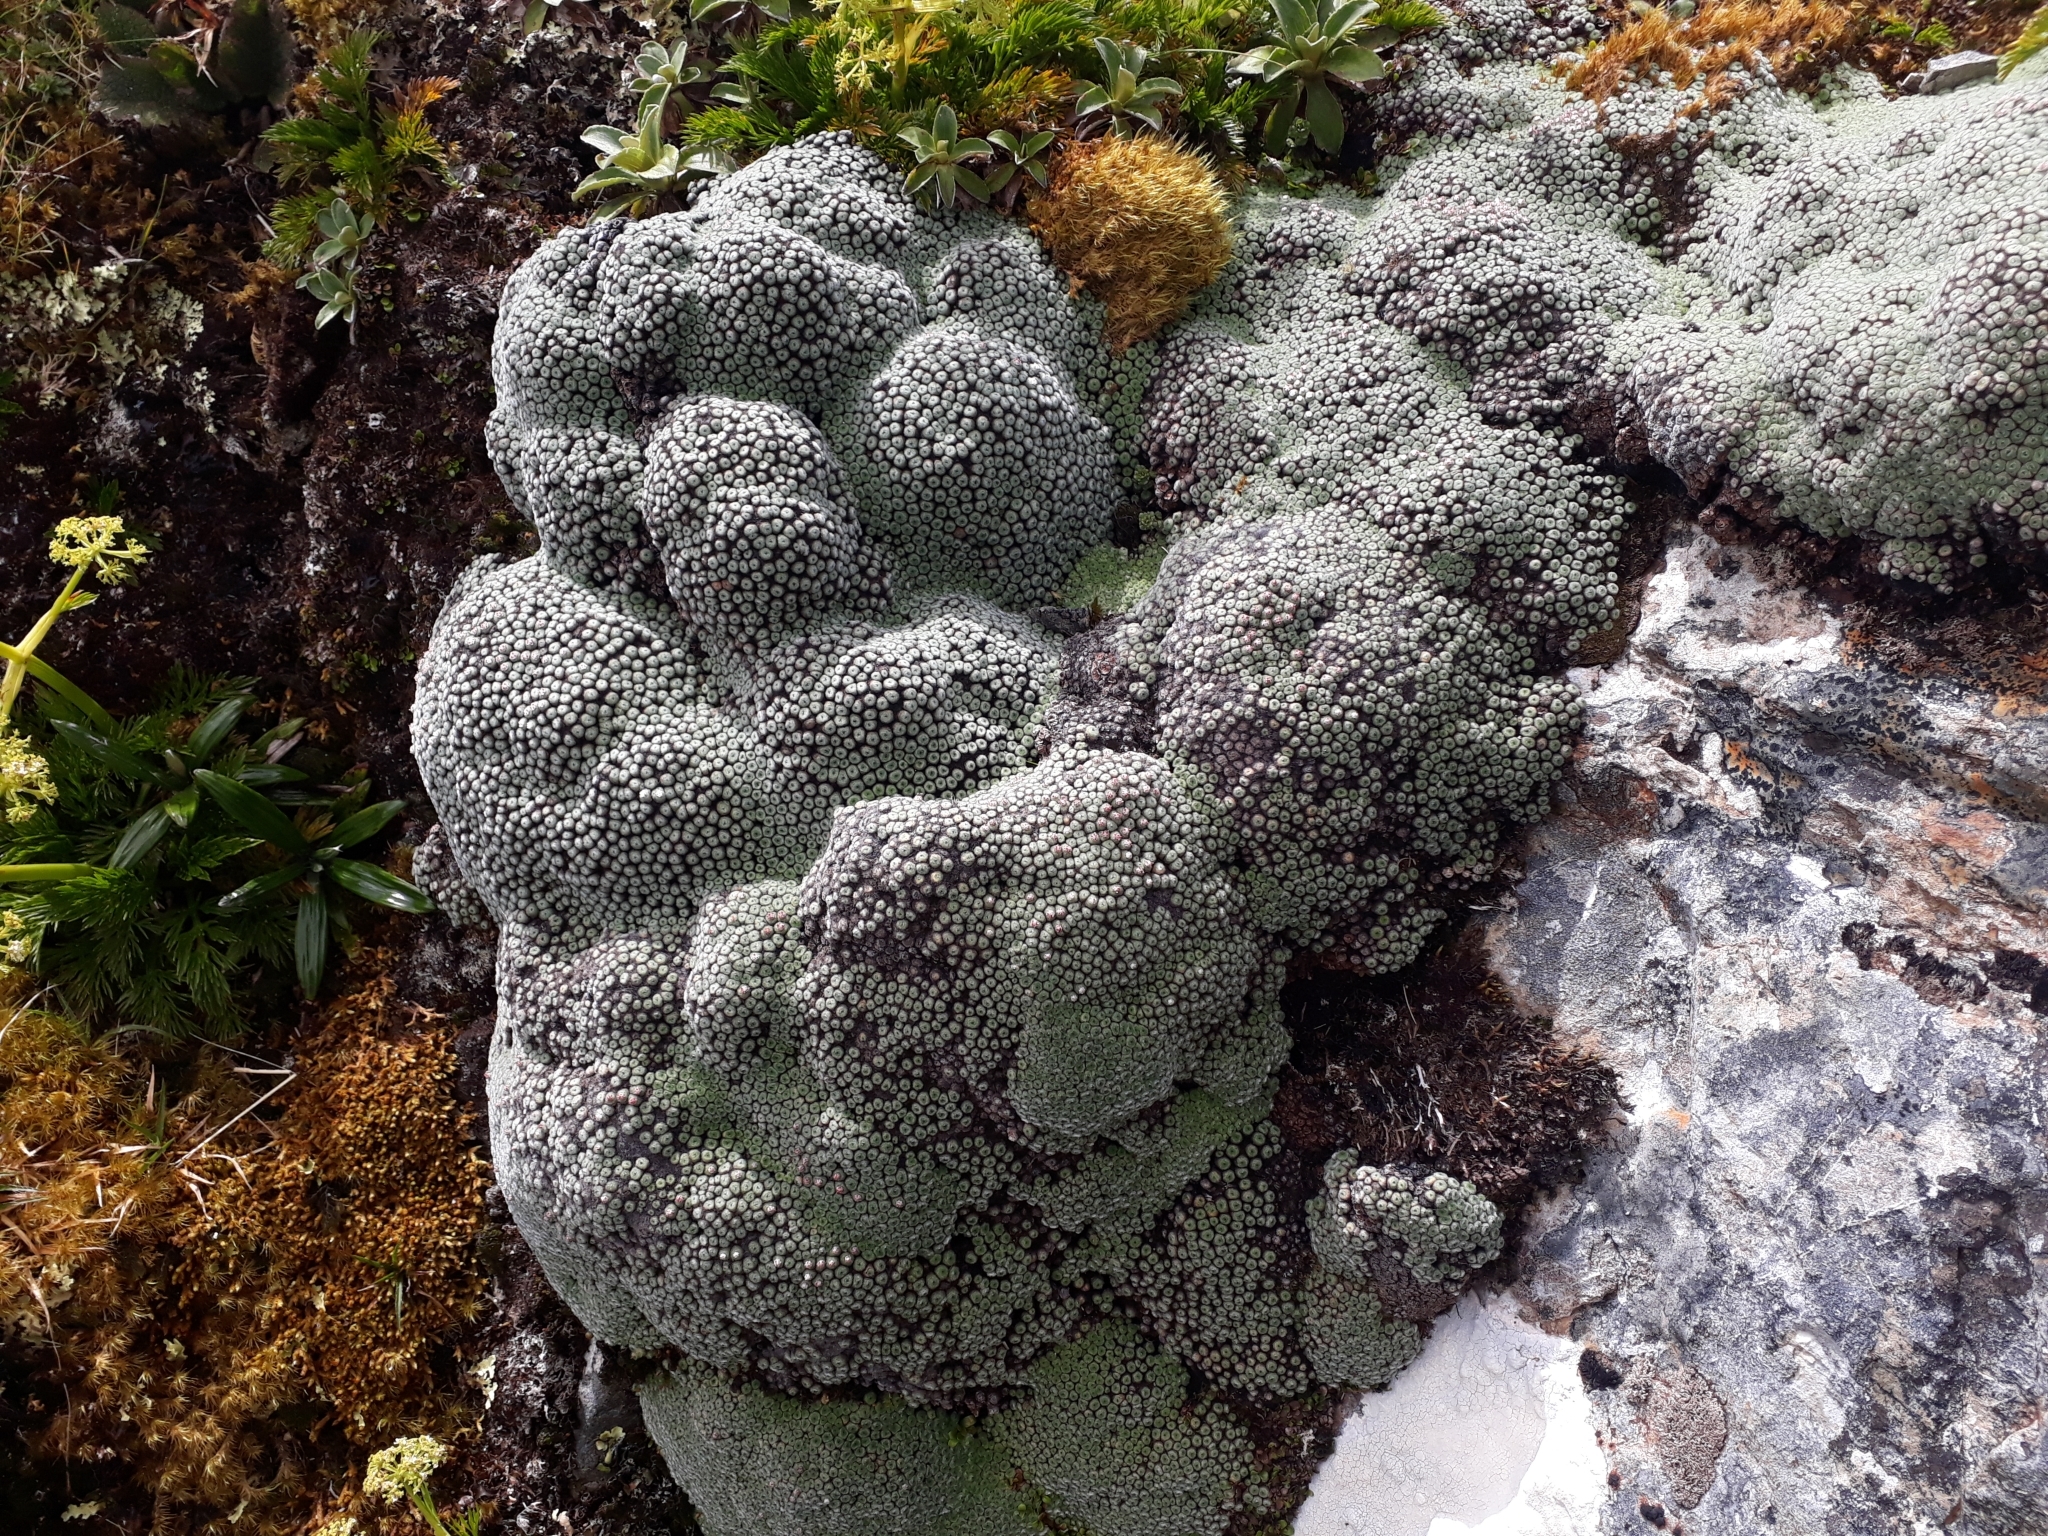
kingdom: Plantae
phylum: Tracheophyta
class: Magnoliopsida
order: Asterales
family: Asteraceae
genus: Raoulia
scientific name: Raoulia rubra
